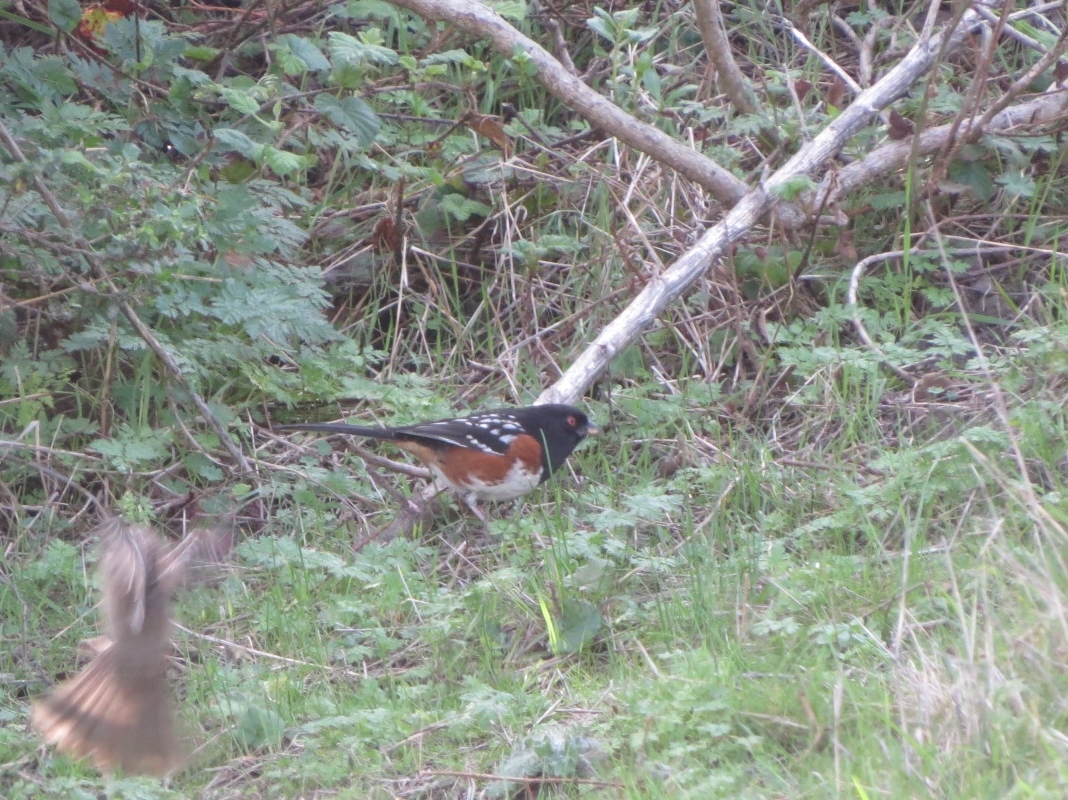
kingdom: Animalia
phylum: Chordata
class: Aves
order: Passeriformes
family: Passerellidae
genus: Pipilo
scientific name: Pipilo maculatus
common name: Spotted towhee
